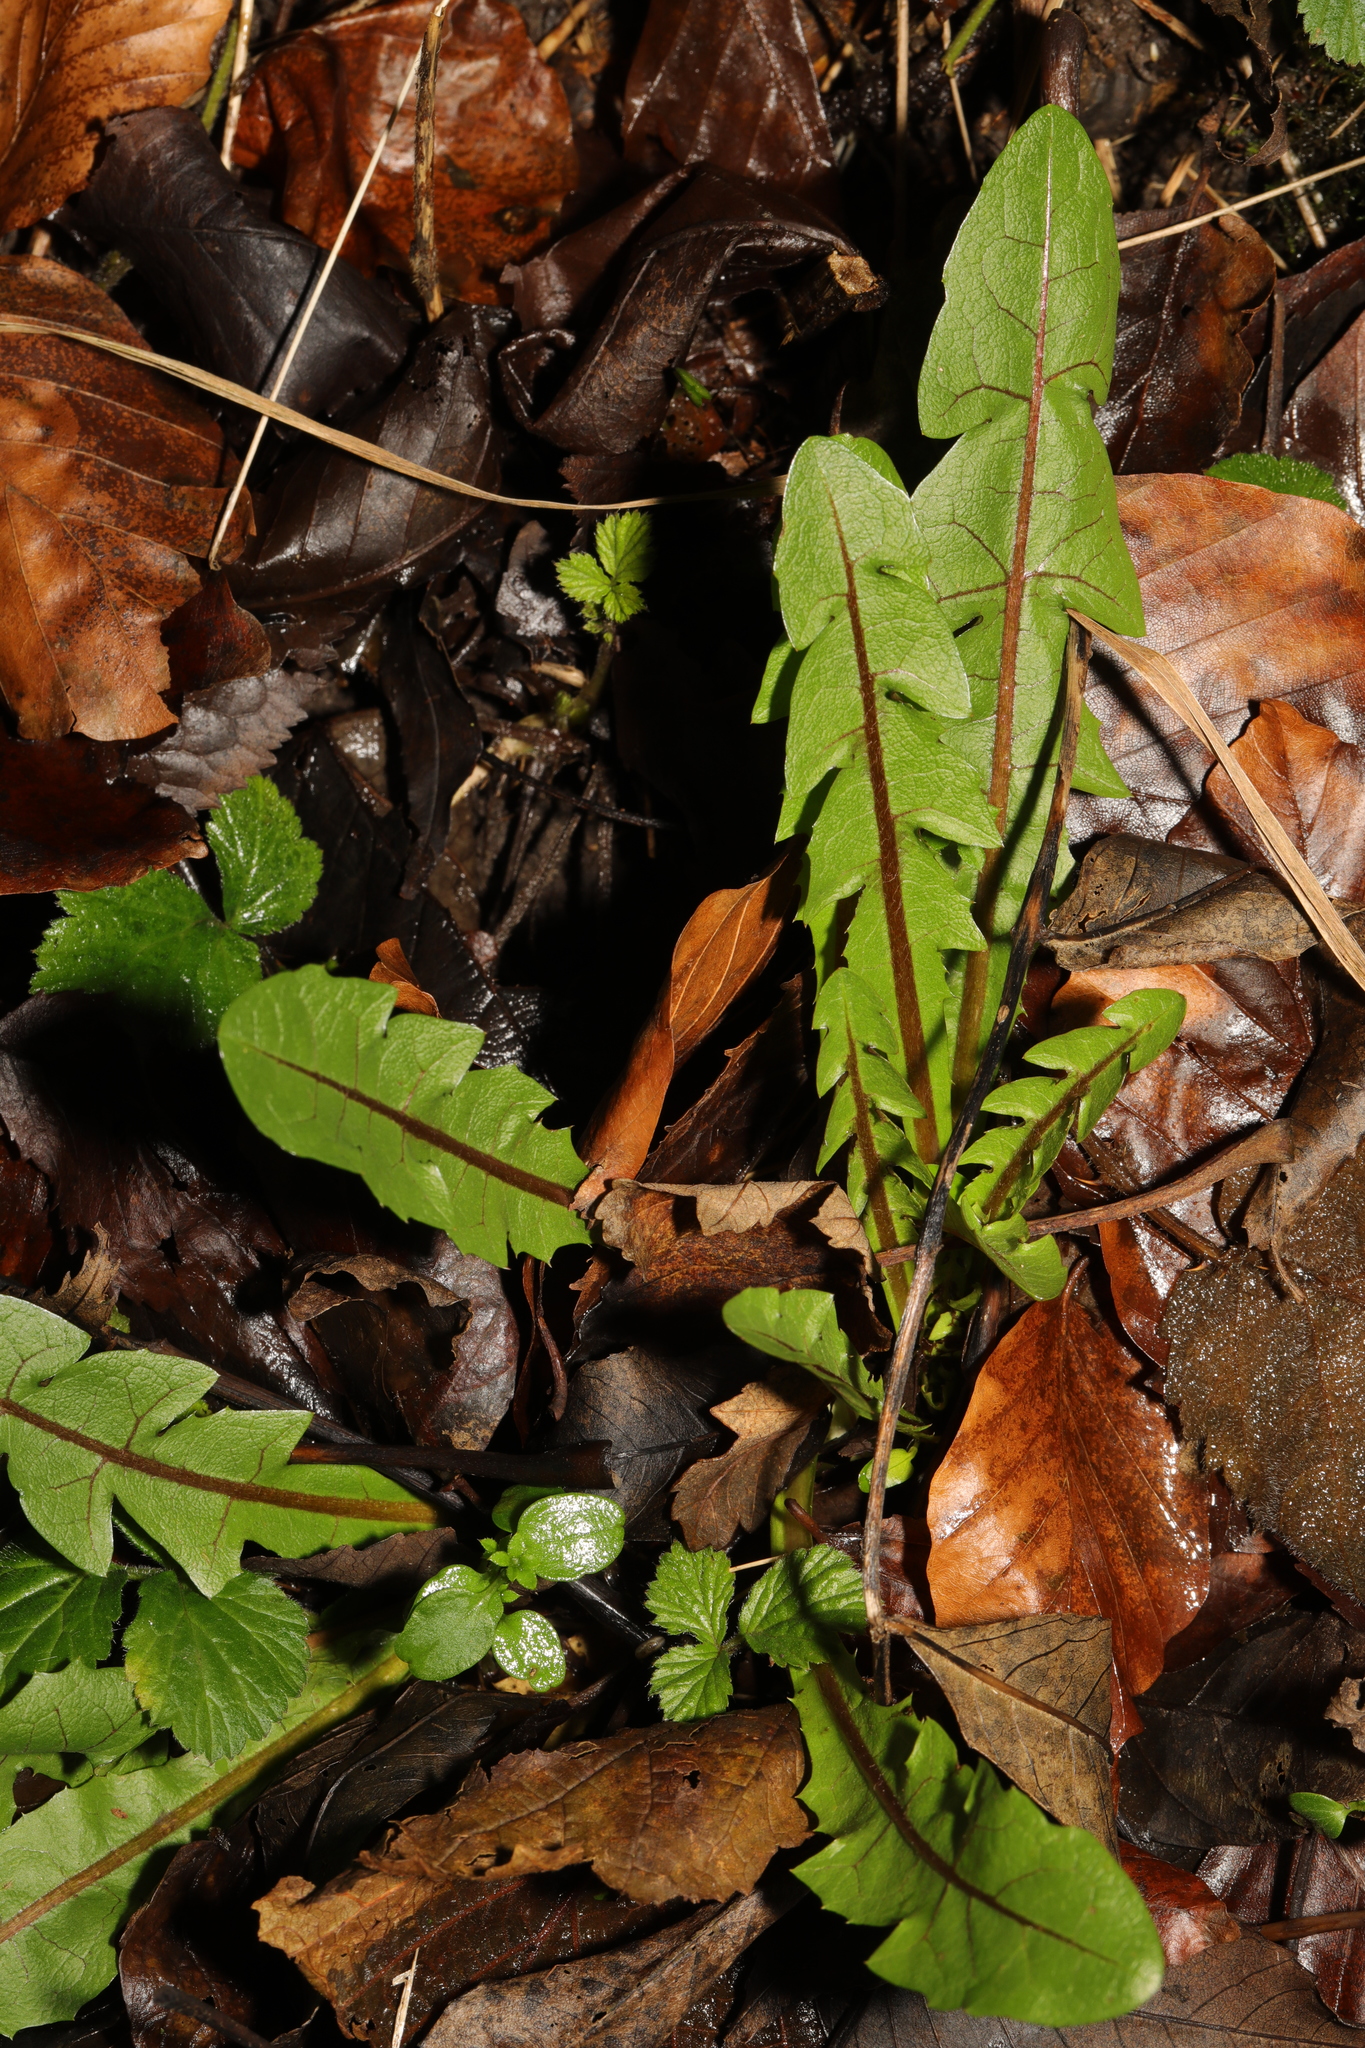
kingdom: Plantae
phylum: Tracheophyta
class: Magnoliopsida
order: Asterales
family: Asteraceae
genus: Taraxacum
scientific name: Taraxacum officinale
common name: Common dandelion
